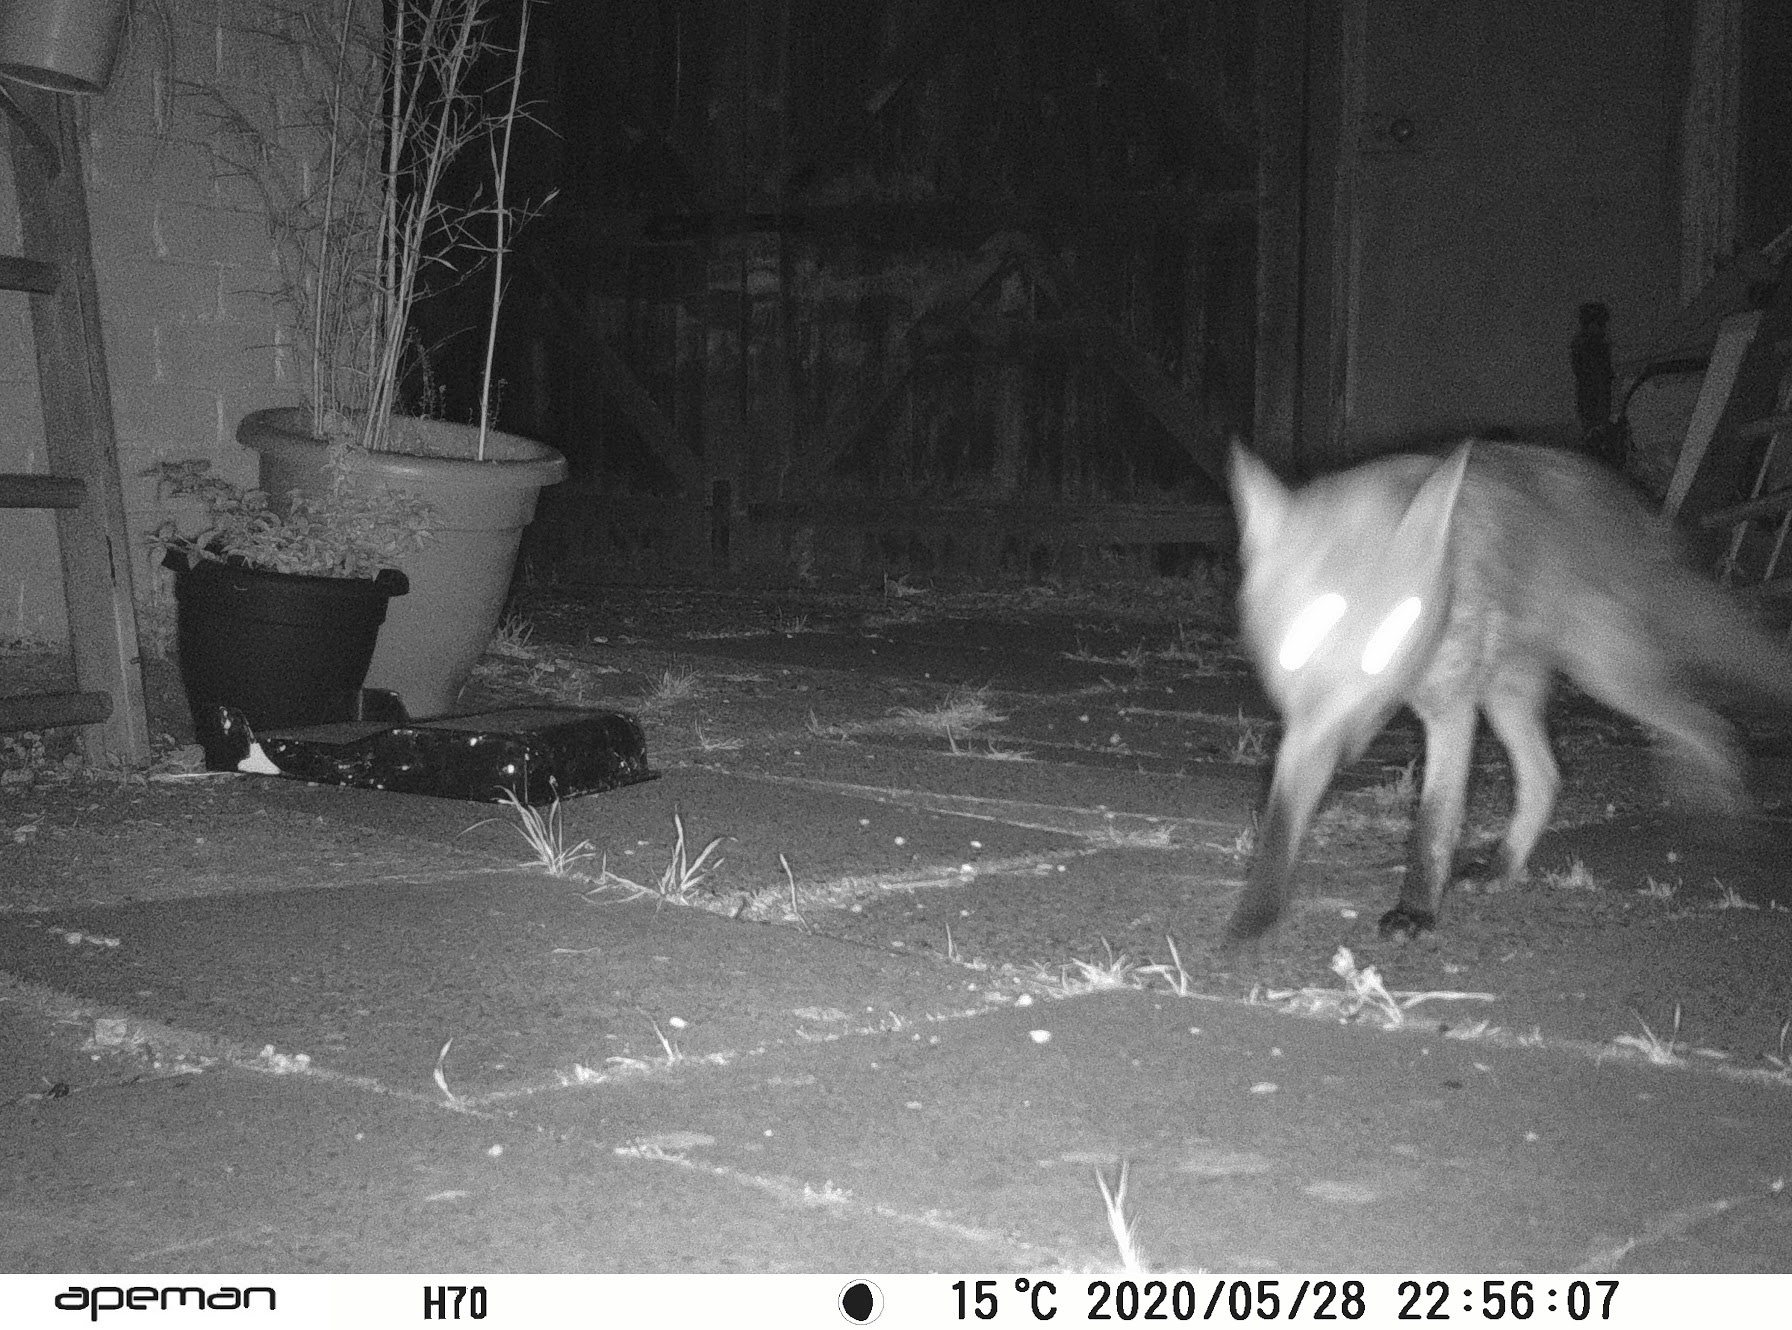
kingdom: Animalia
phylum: Chordata
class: Mammalia
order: Carnivora
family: Canidae
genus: Vulpes
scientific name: Vulpes vulpes
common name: Red fox
